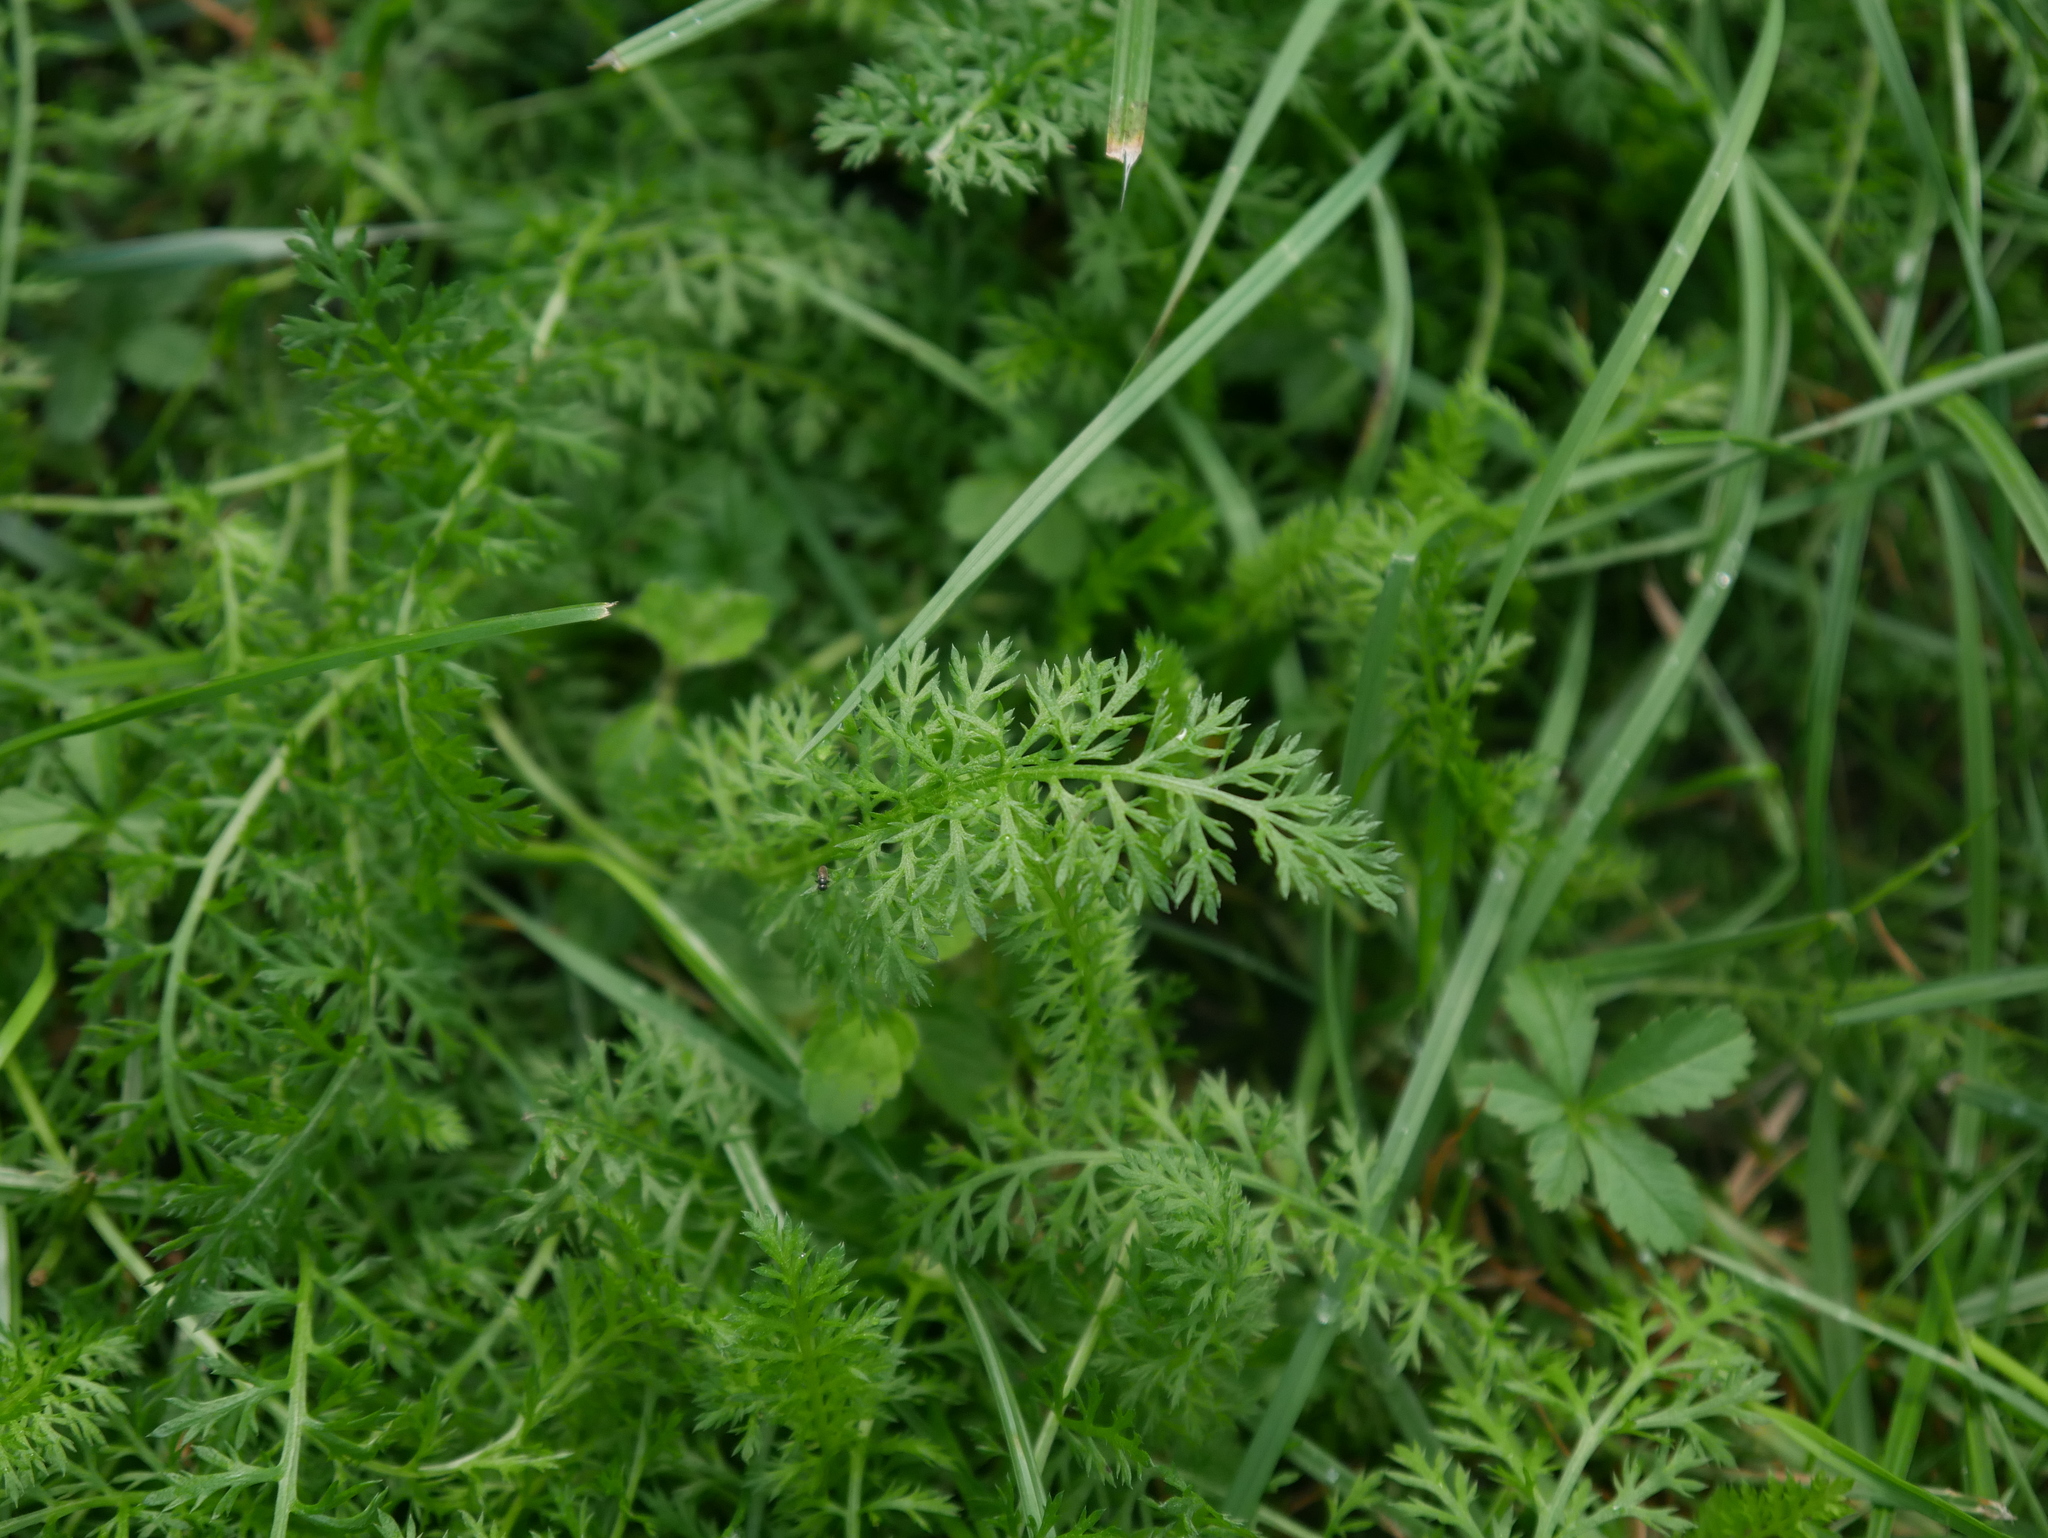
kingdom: Plantae
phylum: Tracheophyta
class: Magnoliopsida
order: Asterales
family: Asteraceae
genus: Achillea
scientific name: Achillea millefolium
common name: Yarrow
